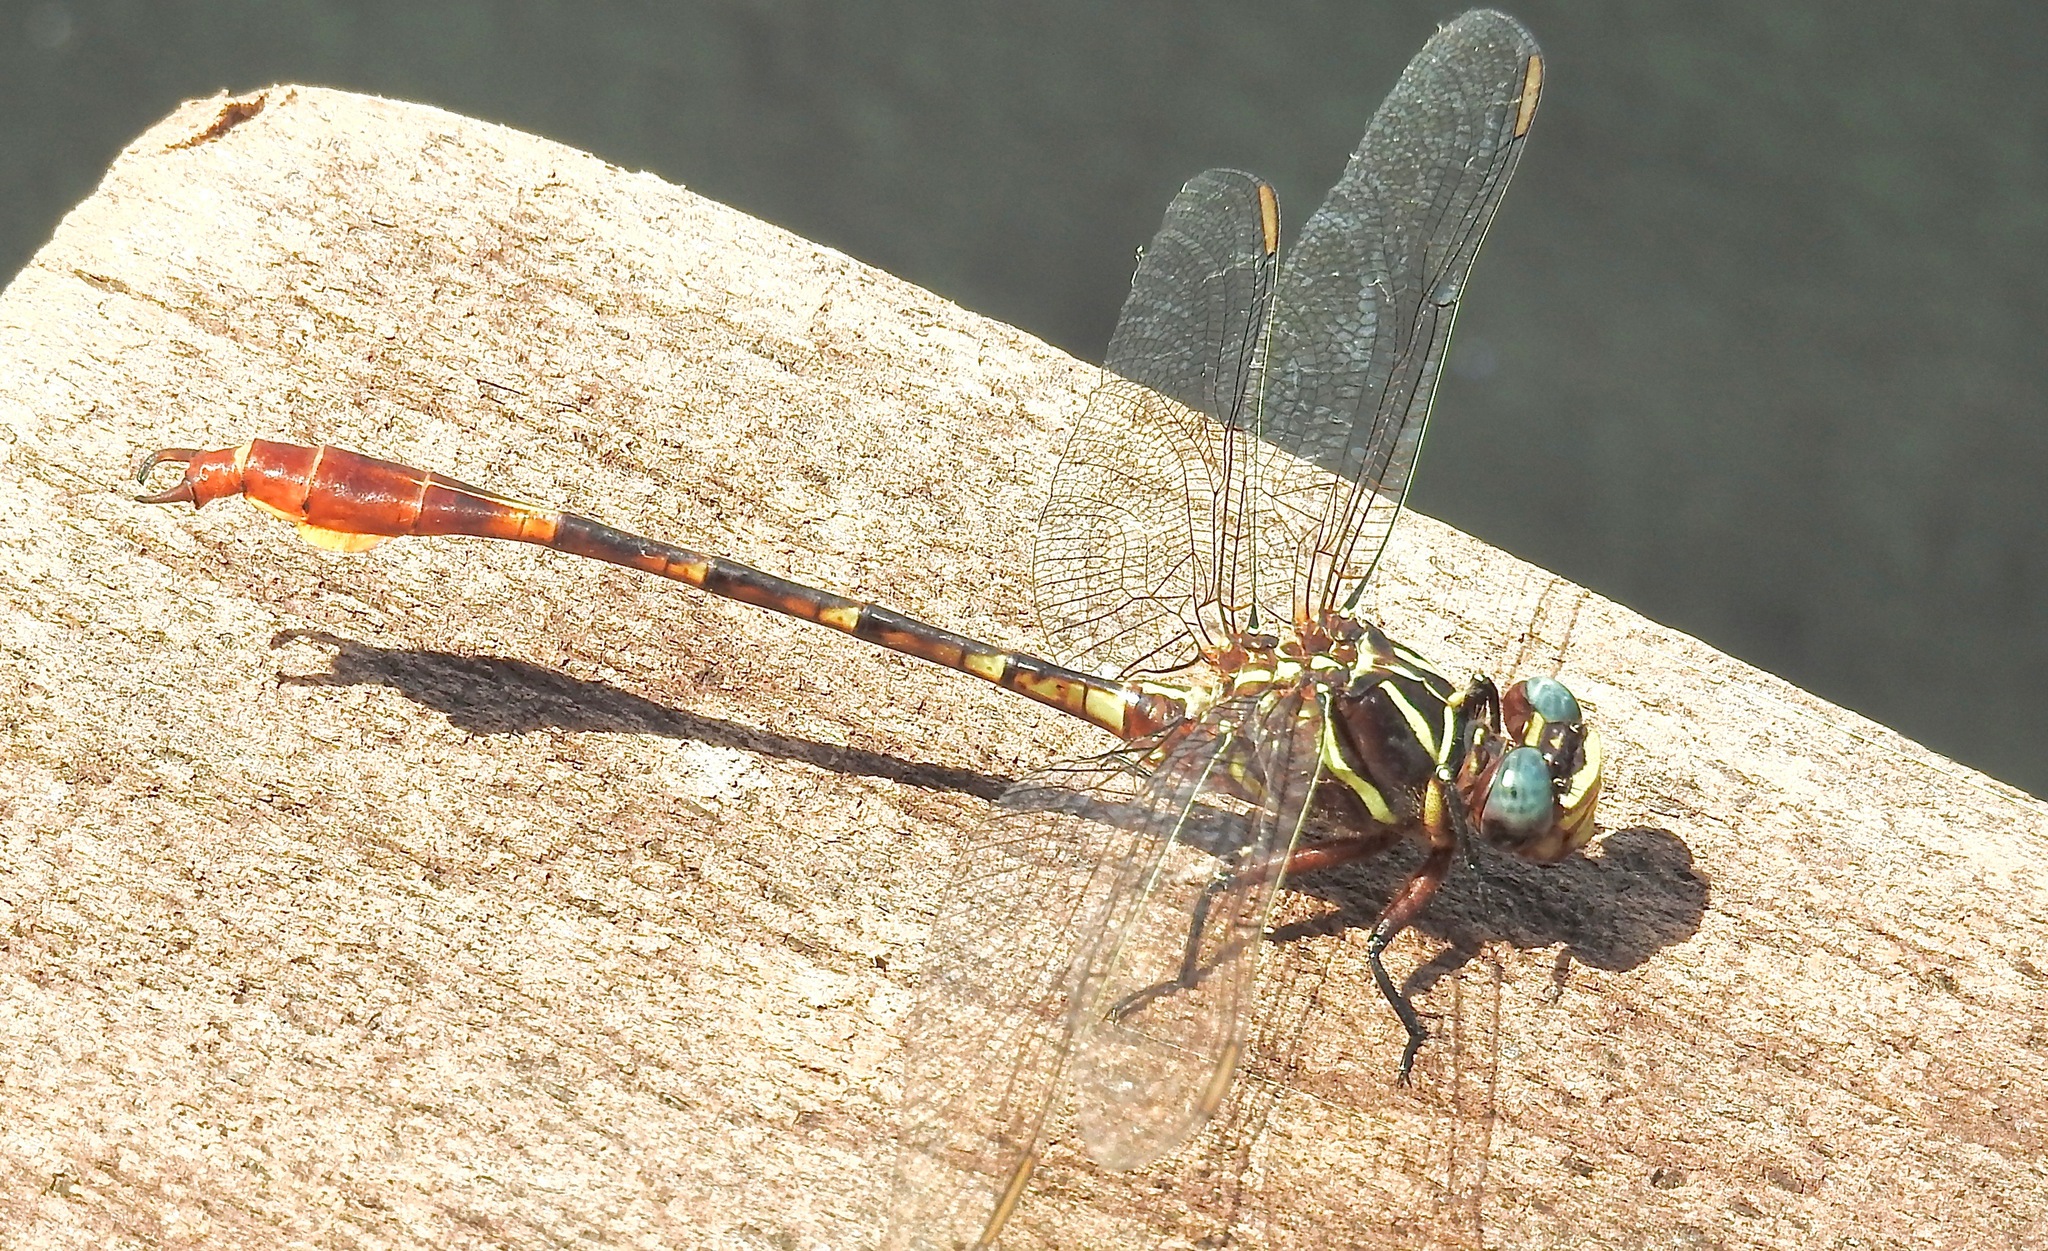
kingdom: Animalia
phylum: Arthropoda
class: Insecta
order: Odonata
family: Gomphidae
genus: Aphylla
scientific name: Aphylla williamsoni
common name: Two-striped forceptail
